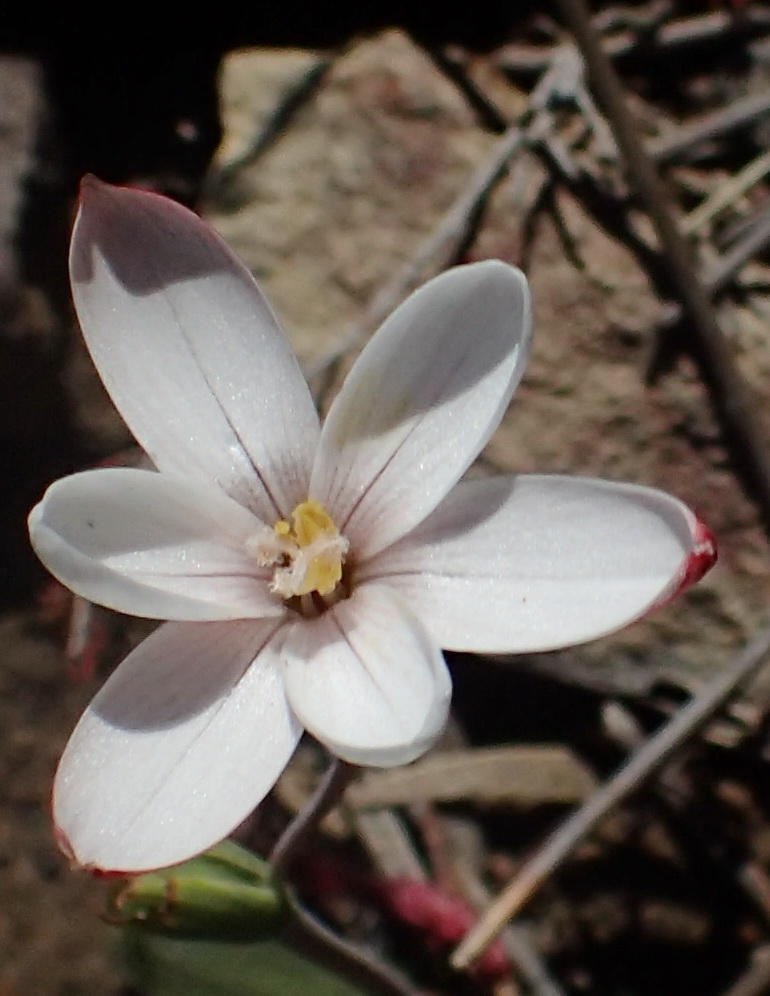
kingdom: Plantae
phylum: Tracheophyta
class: Liliopsida
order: Asparagales
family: Iridaceae
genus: Geissorhiza
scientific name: Geissorhiza ovata
